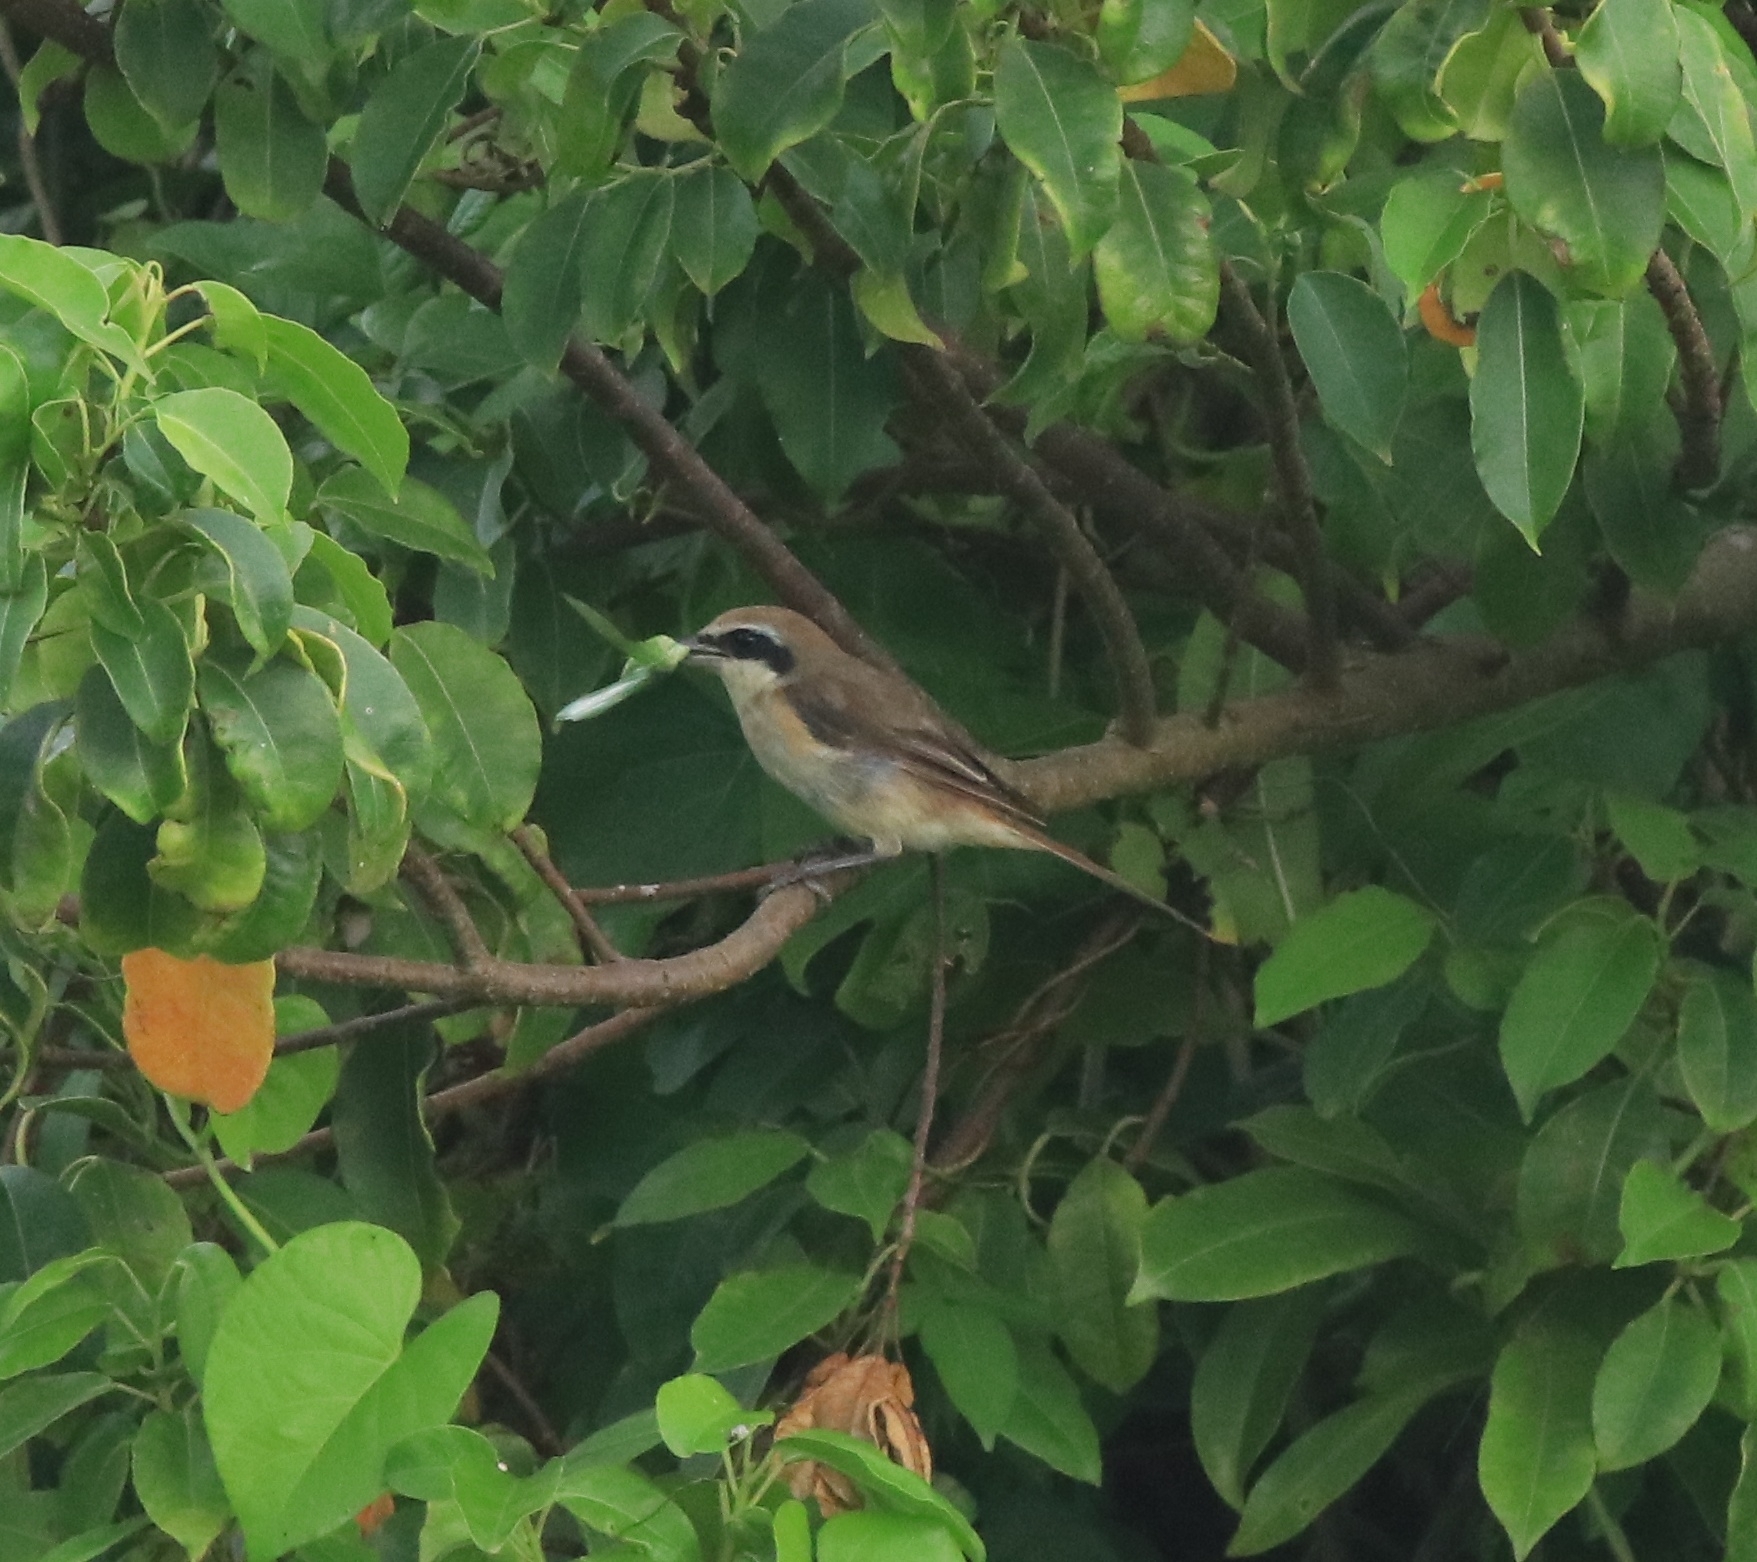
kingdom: Animalia
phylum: Chordata
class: Aves
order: Passeriformes
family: Laniidae
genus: Lanius
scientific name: Lanius cristatus
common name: Brown shrike
